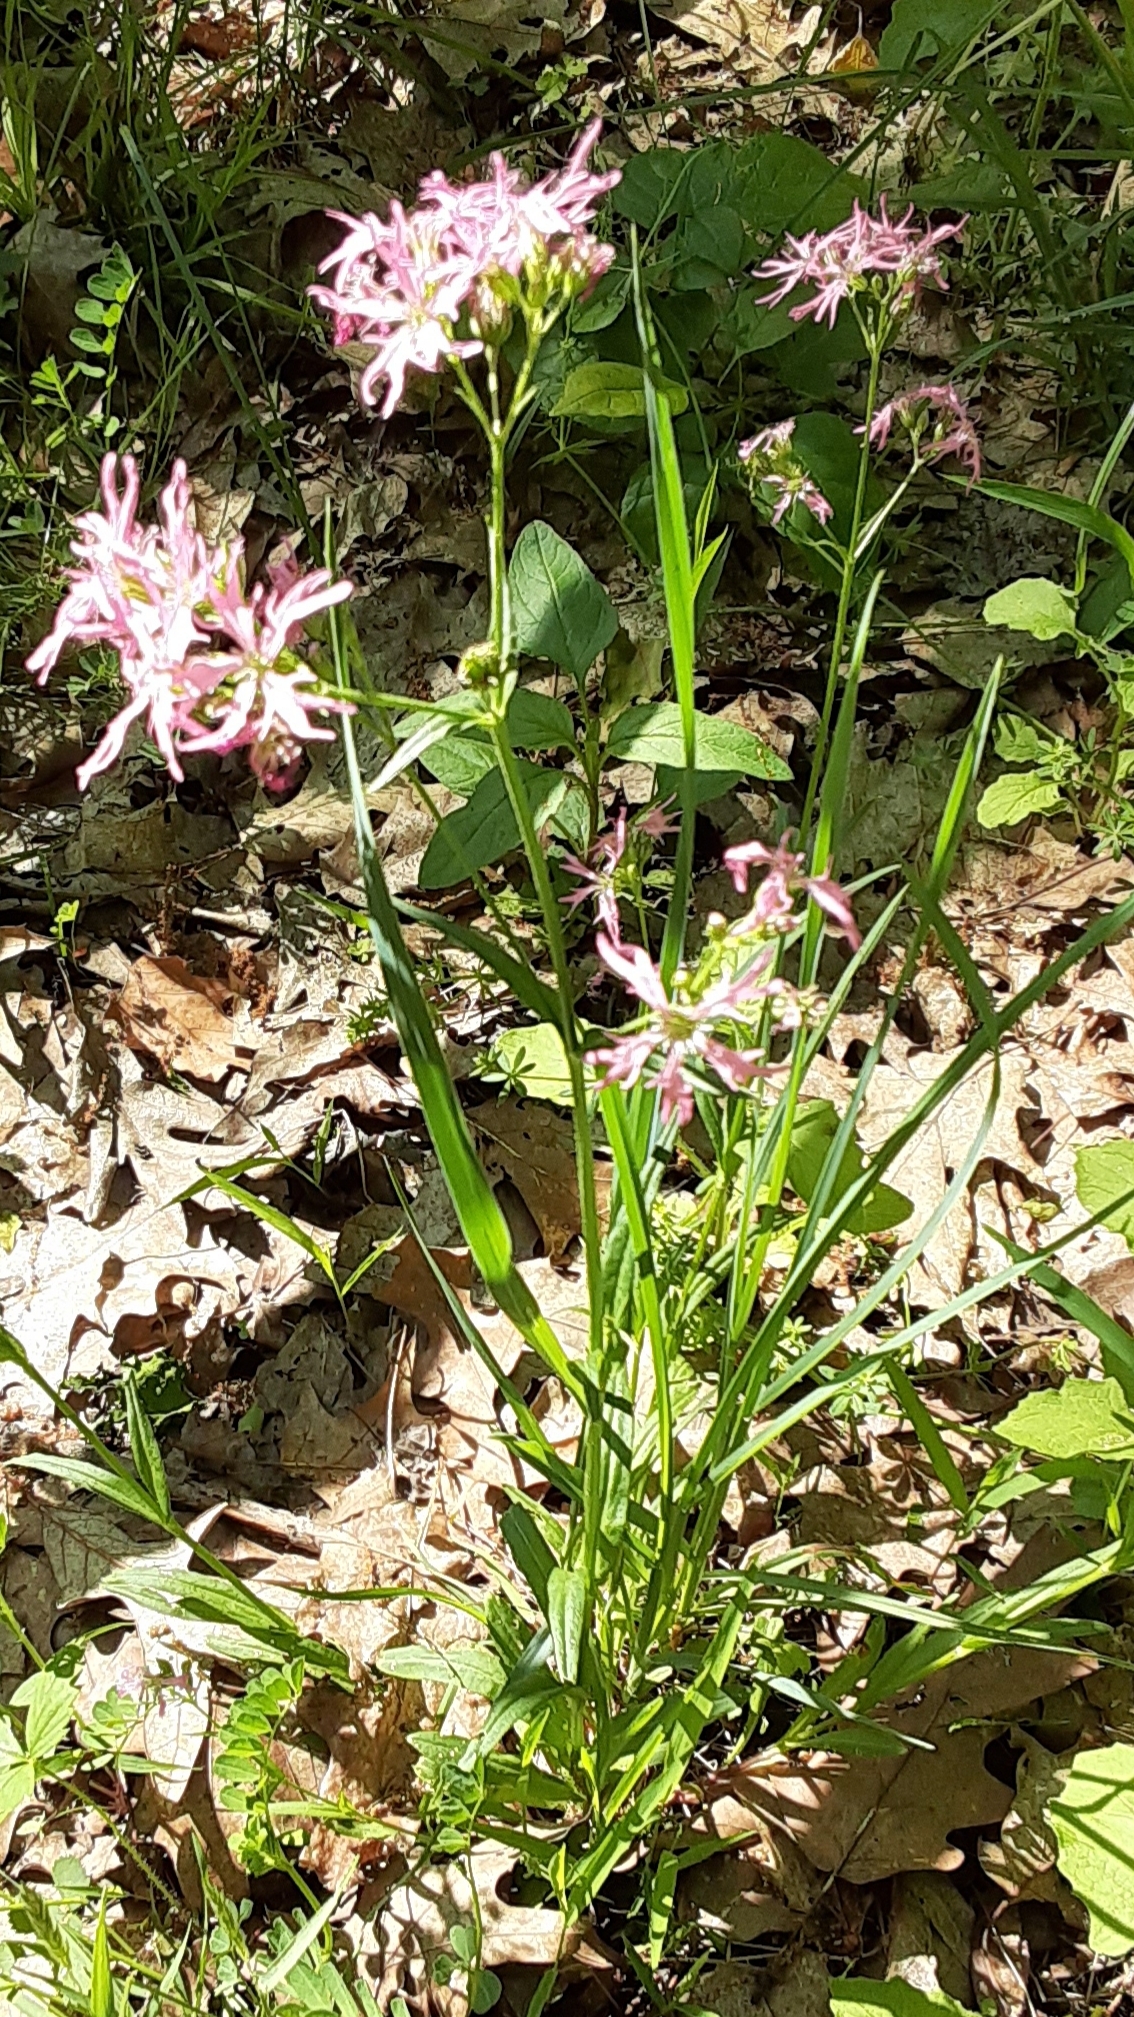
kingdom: Plantae
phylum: Tracheophyta
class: Magnoliopsida
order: Caryophyllales
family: Caryophyllaceae
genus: Silene
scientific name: Silene flos-cuculi
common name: Ragged-robin
